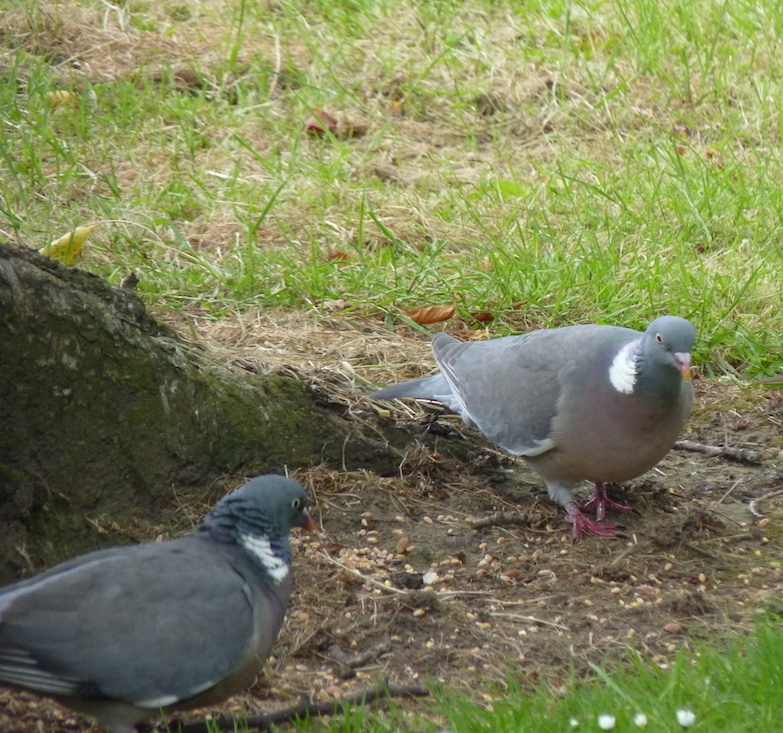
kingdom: Animalia
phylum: Chordata
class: Aves
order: Columbiformes
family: Columbidae
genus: Columba
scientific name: Columba palumbus
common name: Common wood pigeon
